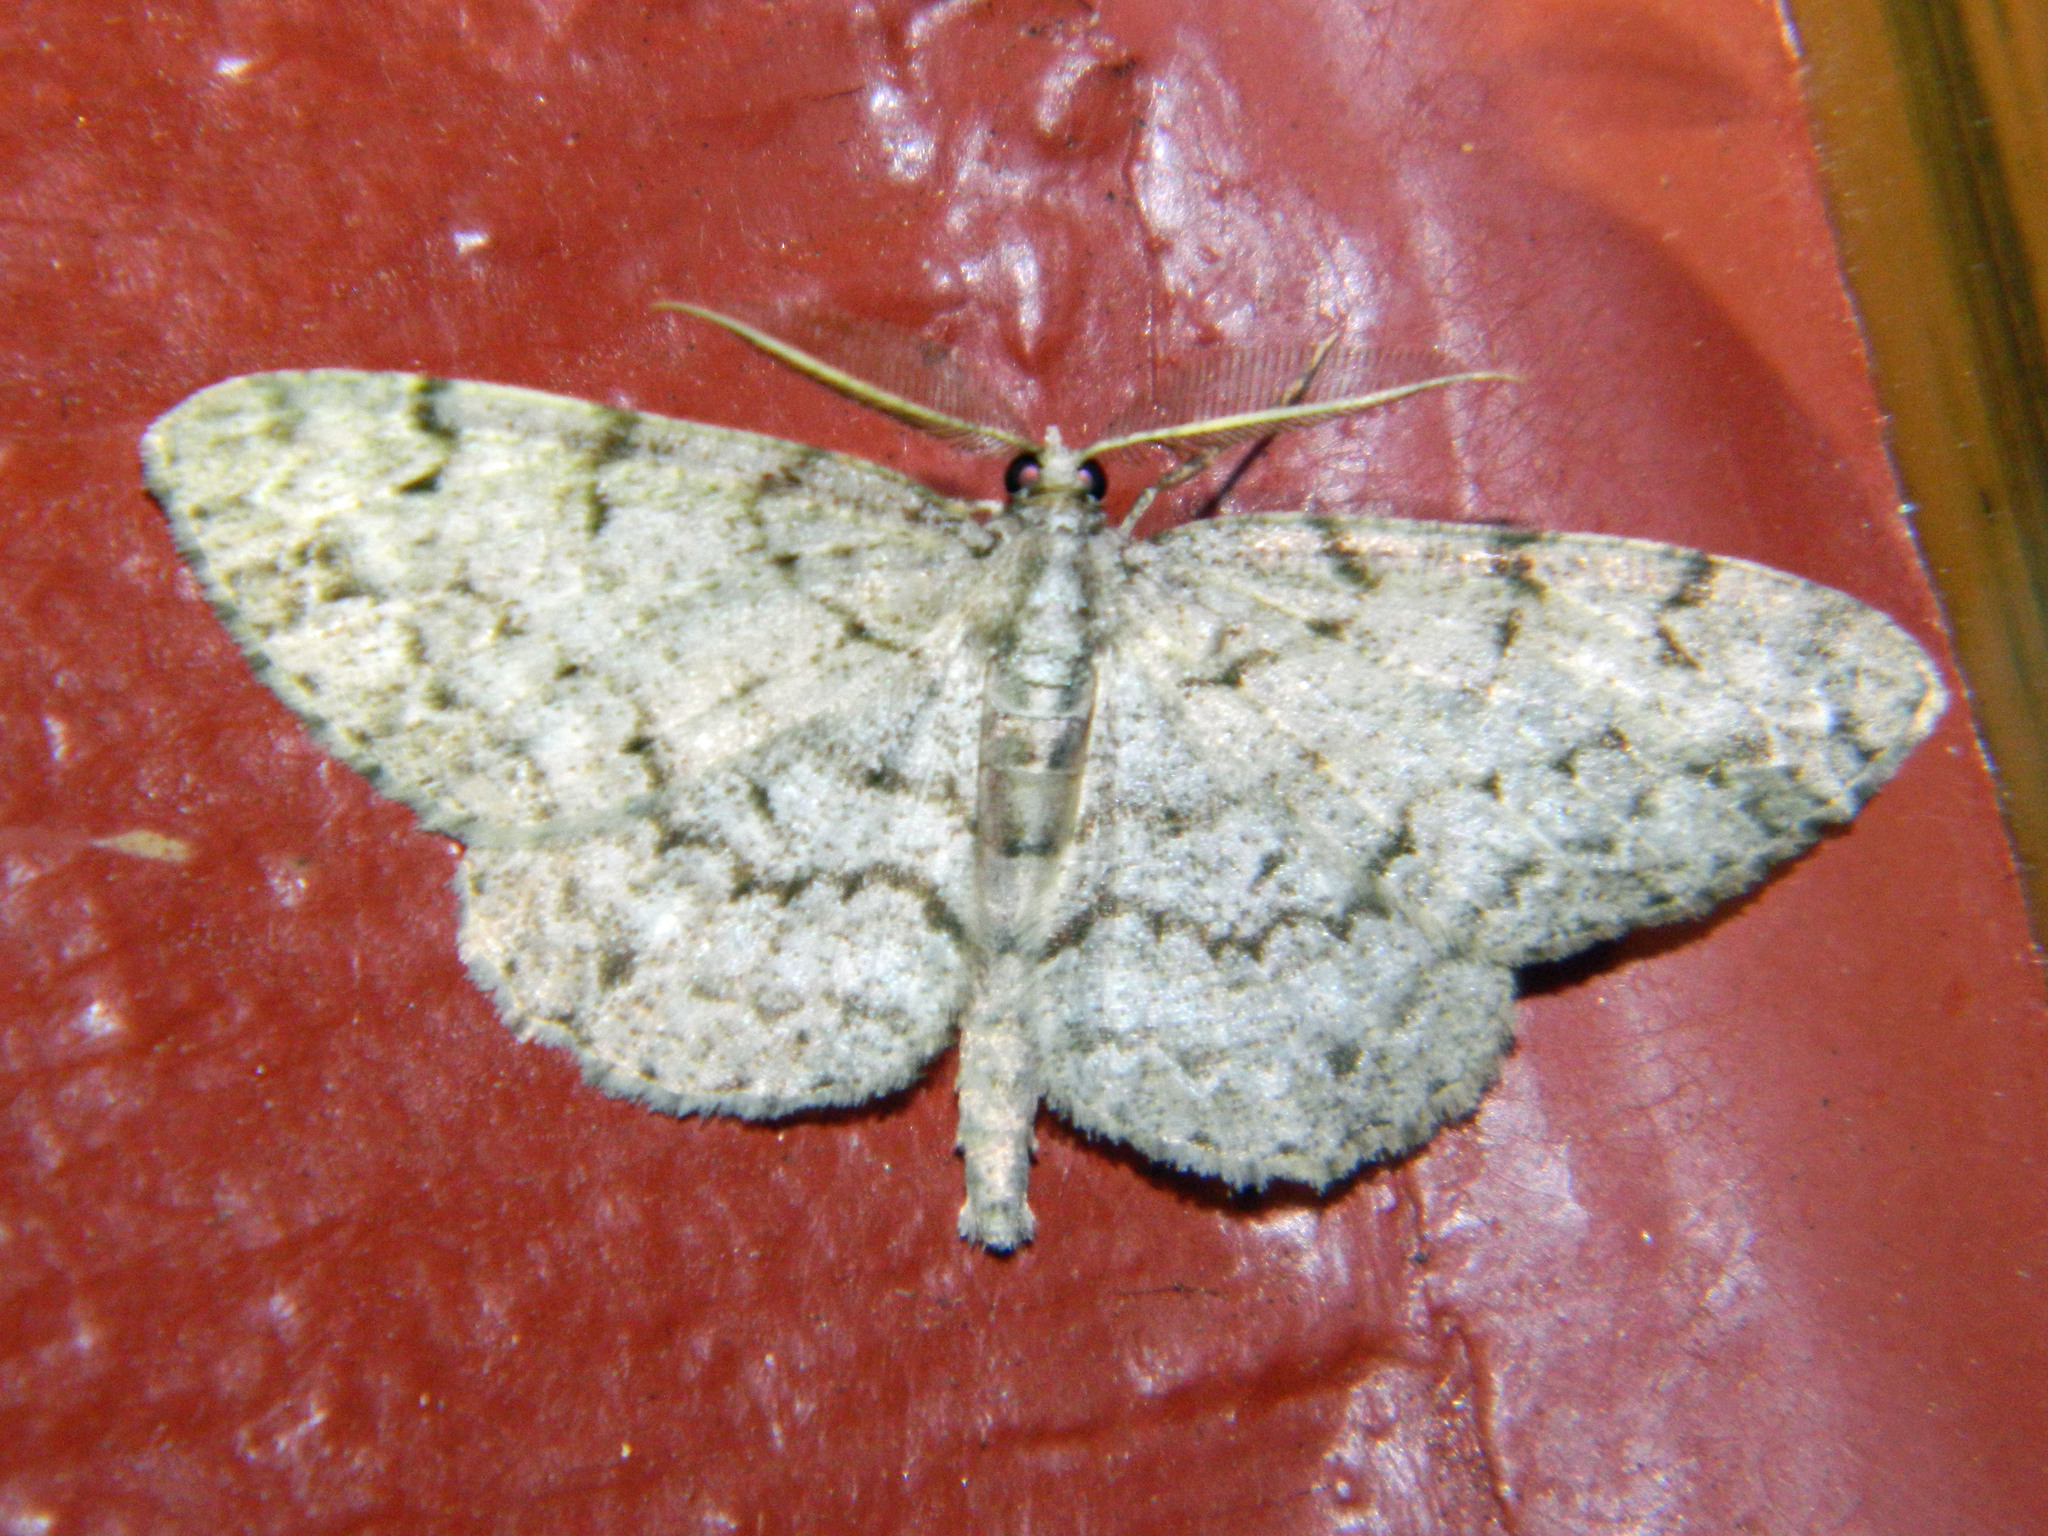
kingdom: Animalia
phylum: Arthropoda
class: Insecta
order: Lepidoptera
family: Geometridae
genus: Protoboarmia
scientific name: Protoboarmia porcelaria
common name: Porcelain gray
